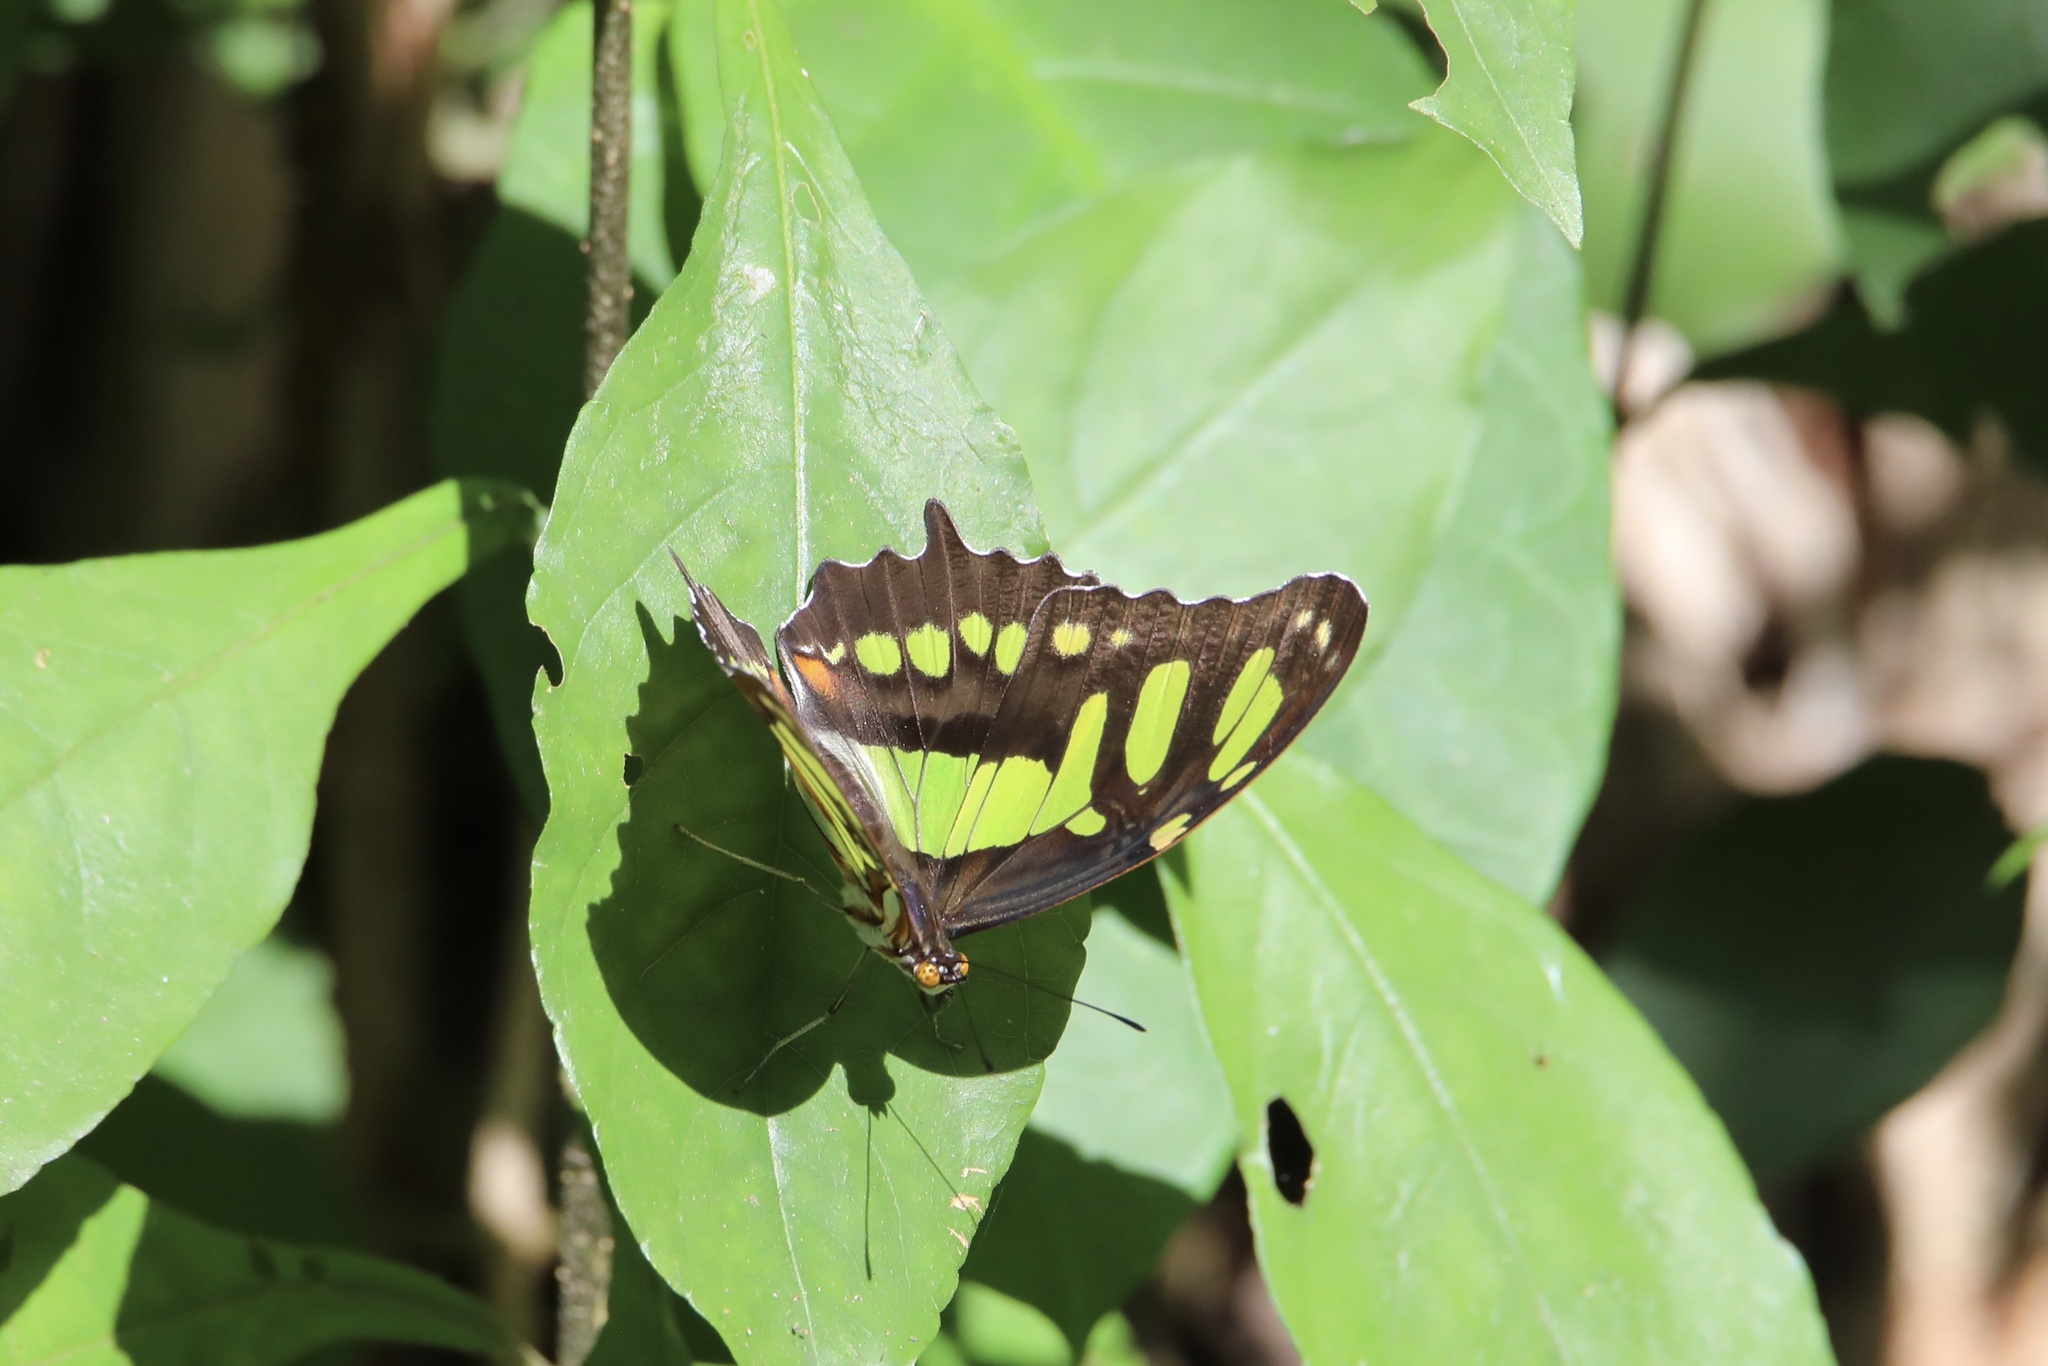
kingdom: Animalia
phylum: Arthropoda
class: Insecta
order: Lepidoptera
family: Nymphalidae
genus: Siproeta
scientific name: Siproeta stelenes
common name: Malachite
